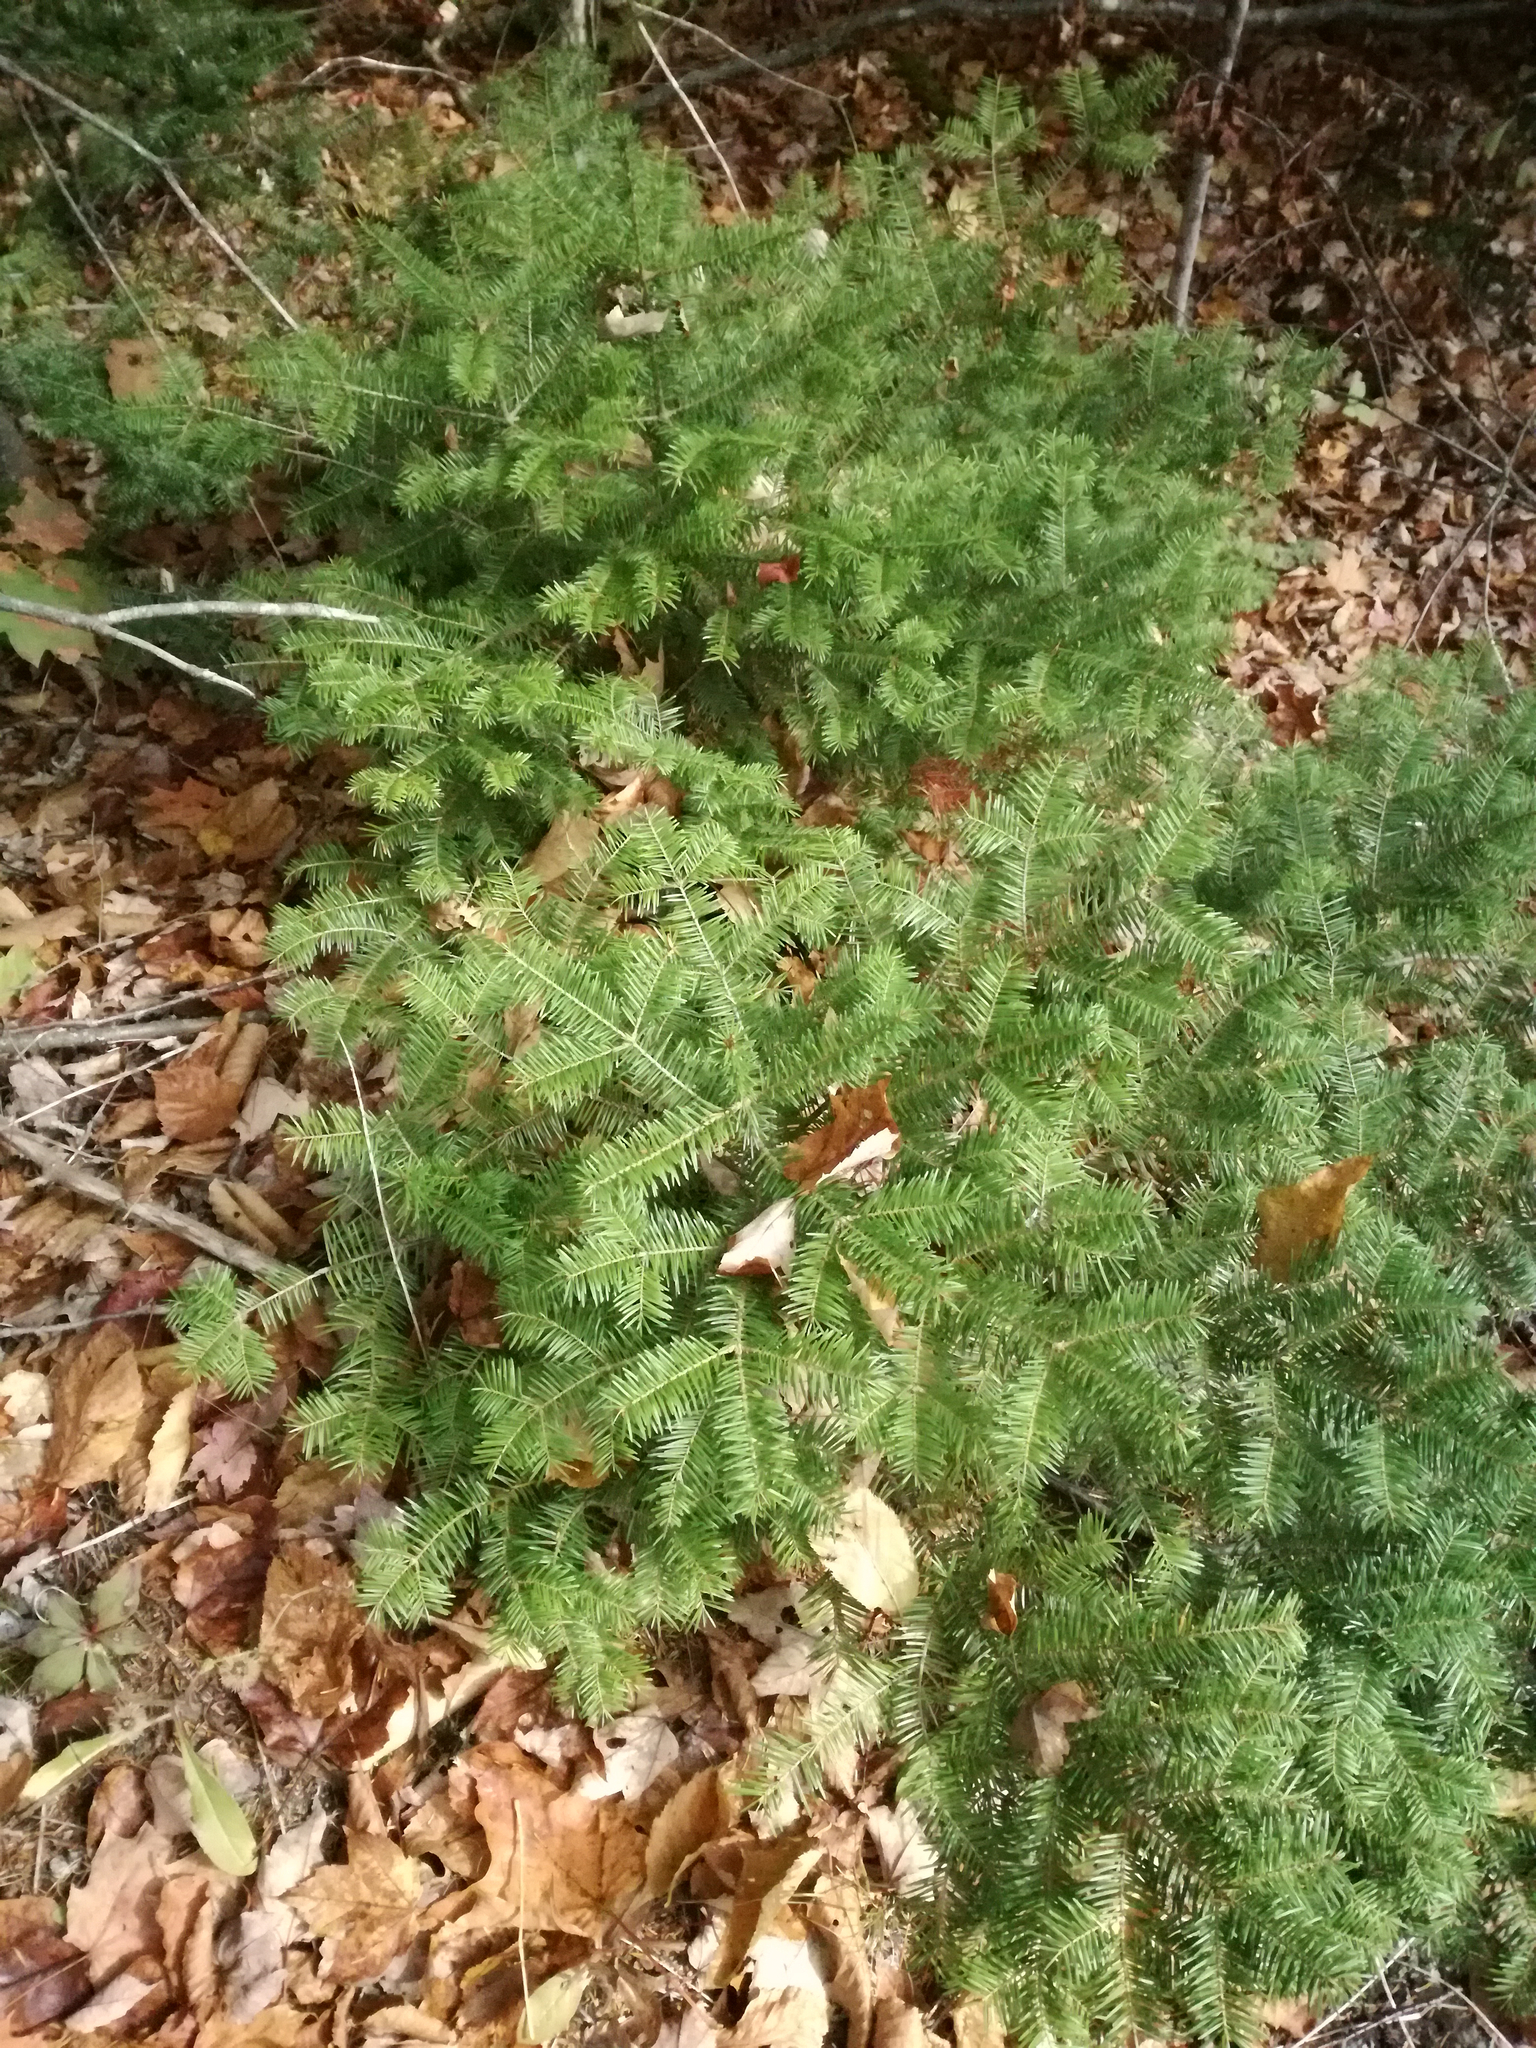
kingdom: Plantae
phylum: Tracheophyta
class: Pinopsida
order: Pinales
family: Pinaceae
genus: Abies
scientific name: Abies balsamea
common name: Balsam fir
